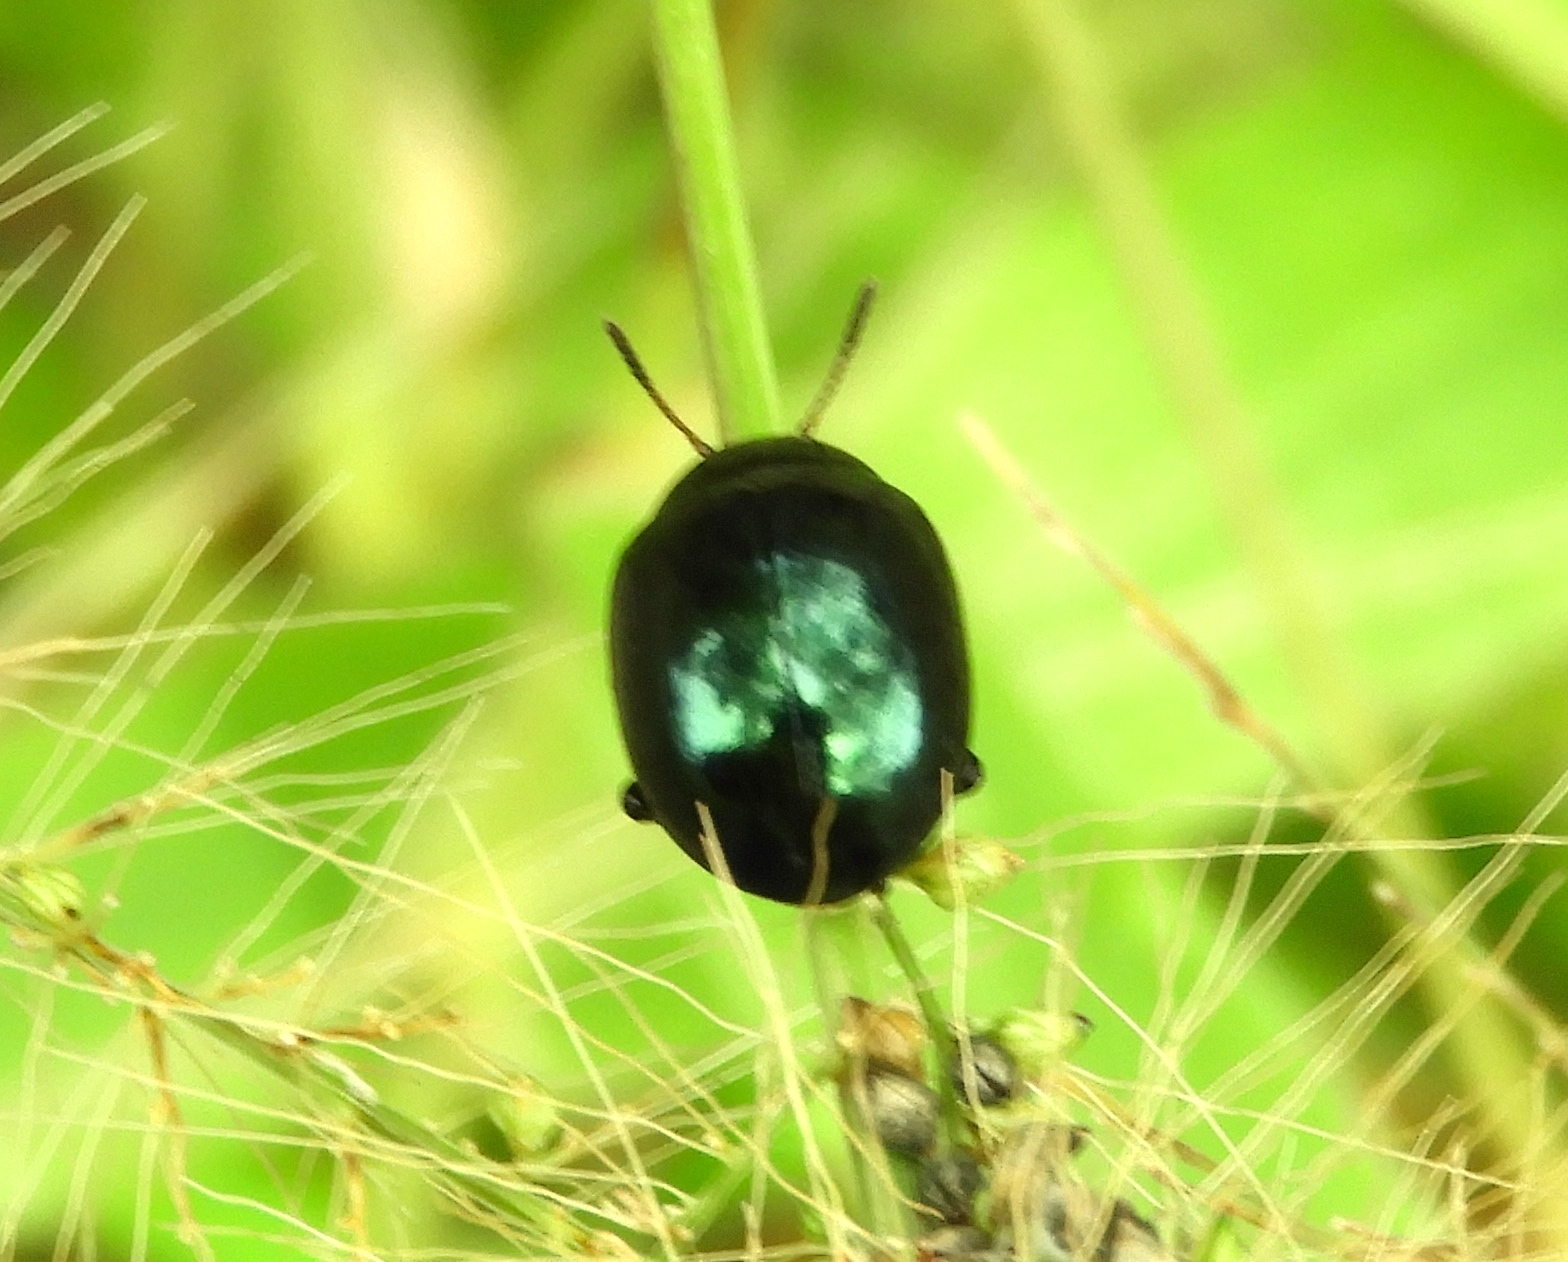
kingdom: Animalia
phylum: Arthropoda
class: Insecta
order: Coleoptera
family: Chrysomelidae
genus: Leptinotarsa
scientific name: Leptinotarsa haldemani
